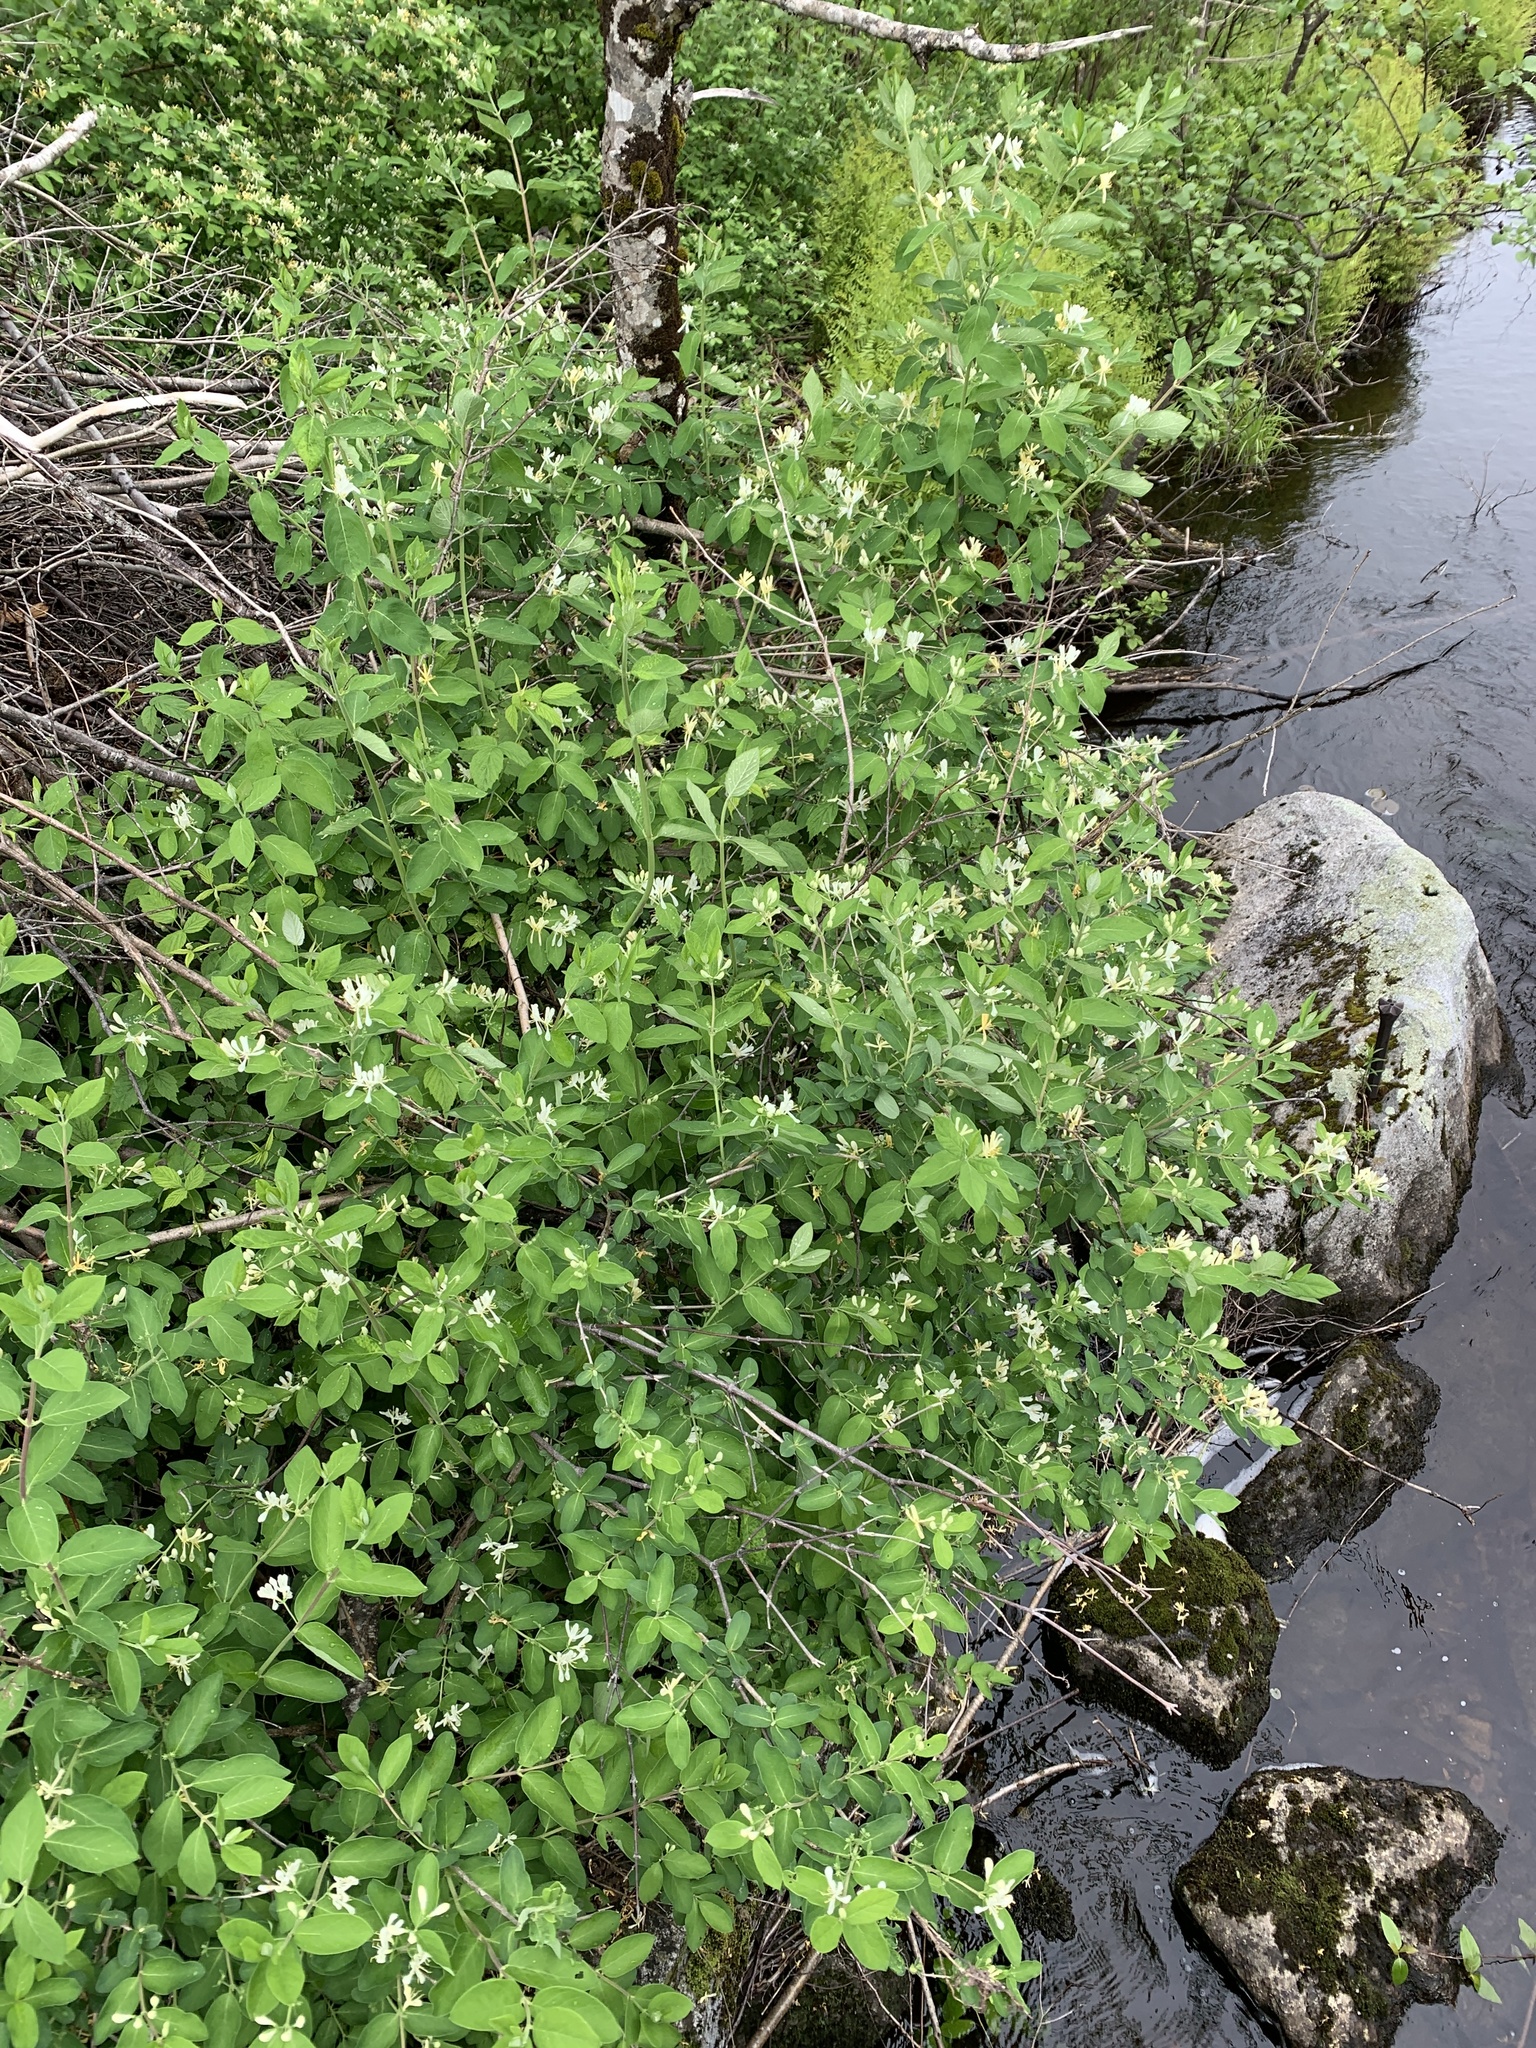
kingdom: Plantae
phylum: Tracheophyta
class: Magnoliopsida
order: Dipsacales
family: Caprifoliaceae
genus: Lonicera
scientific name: Lonicera
